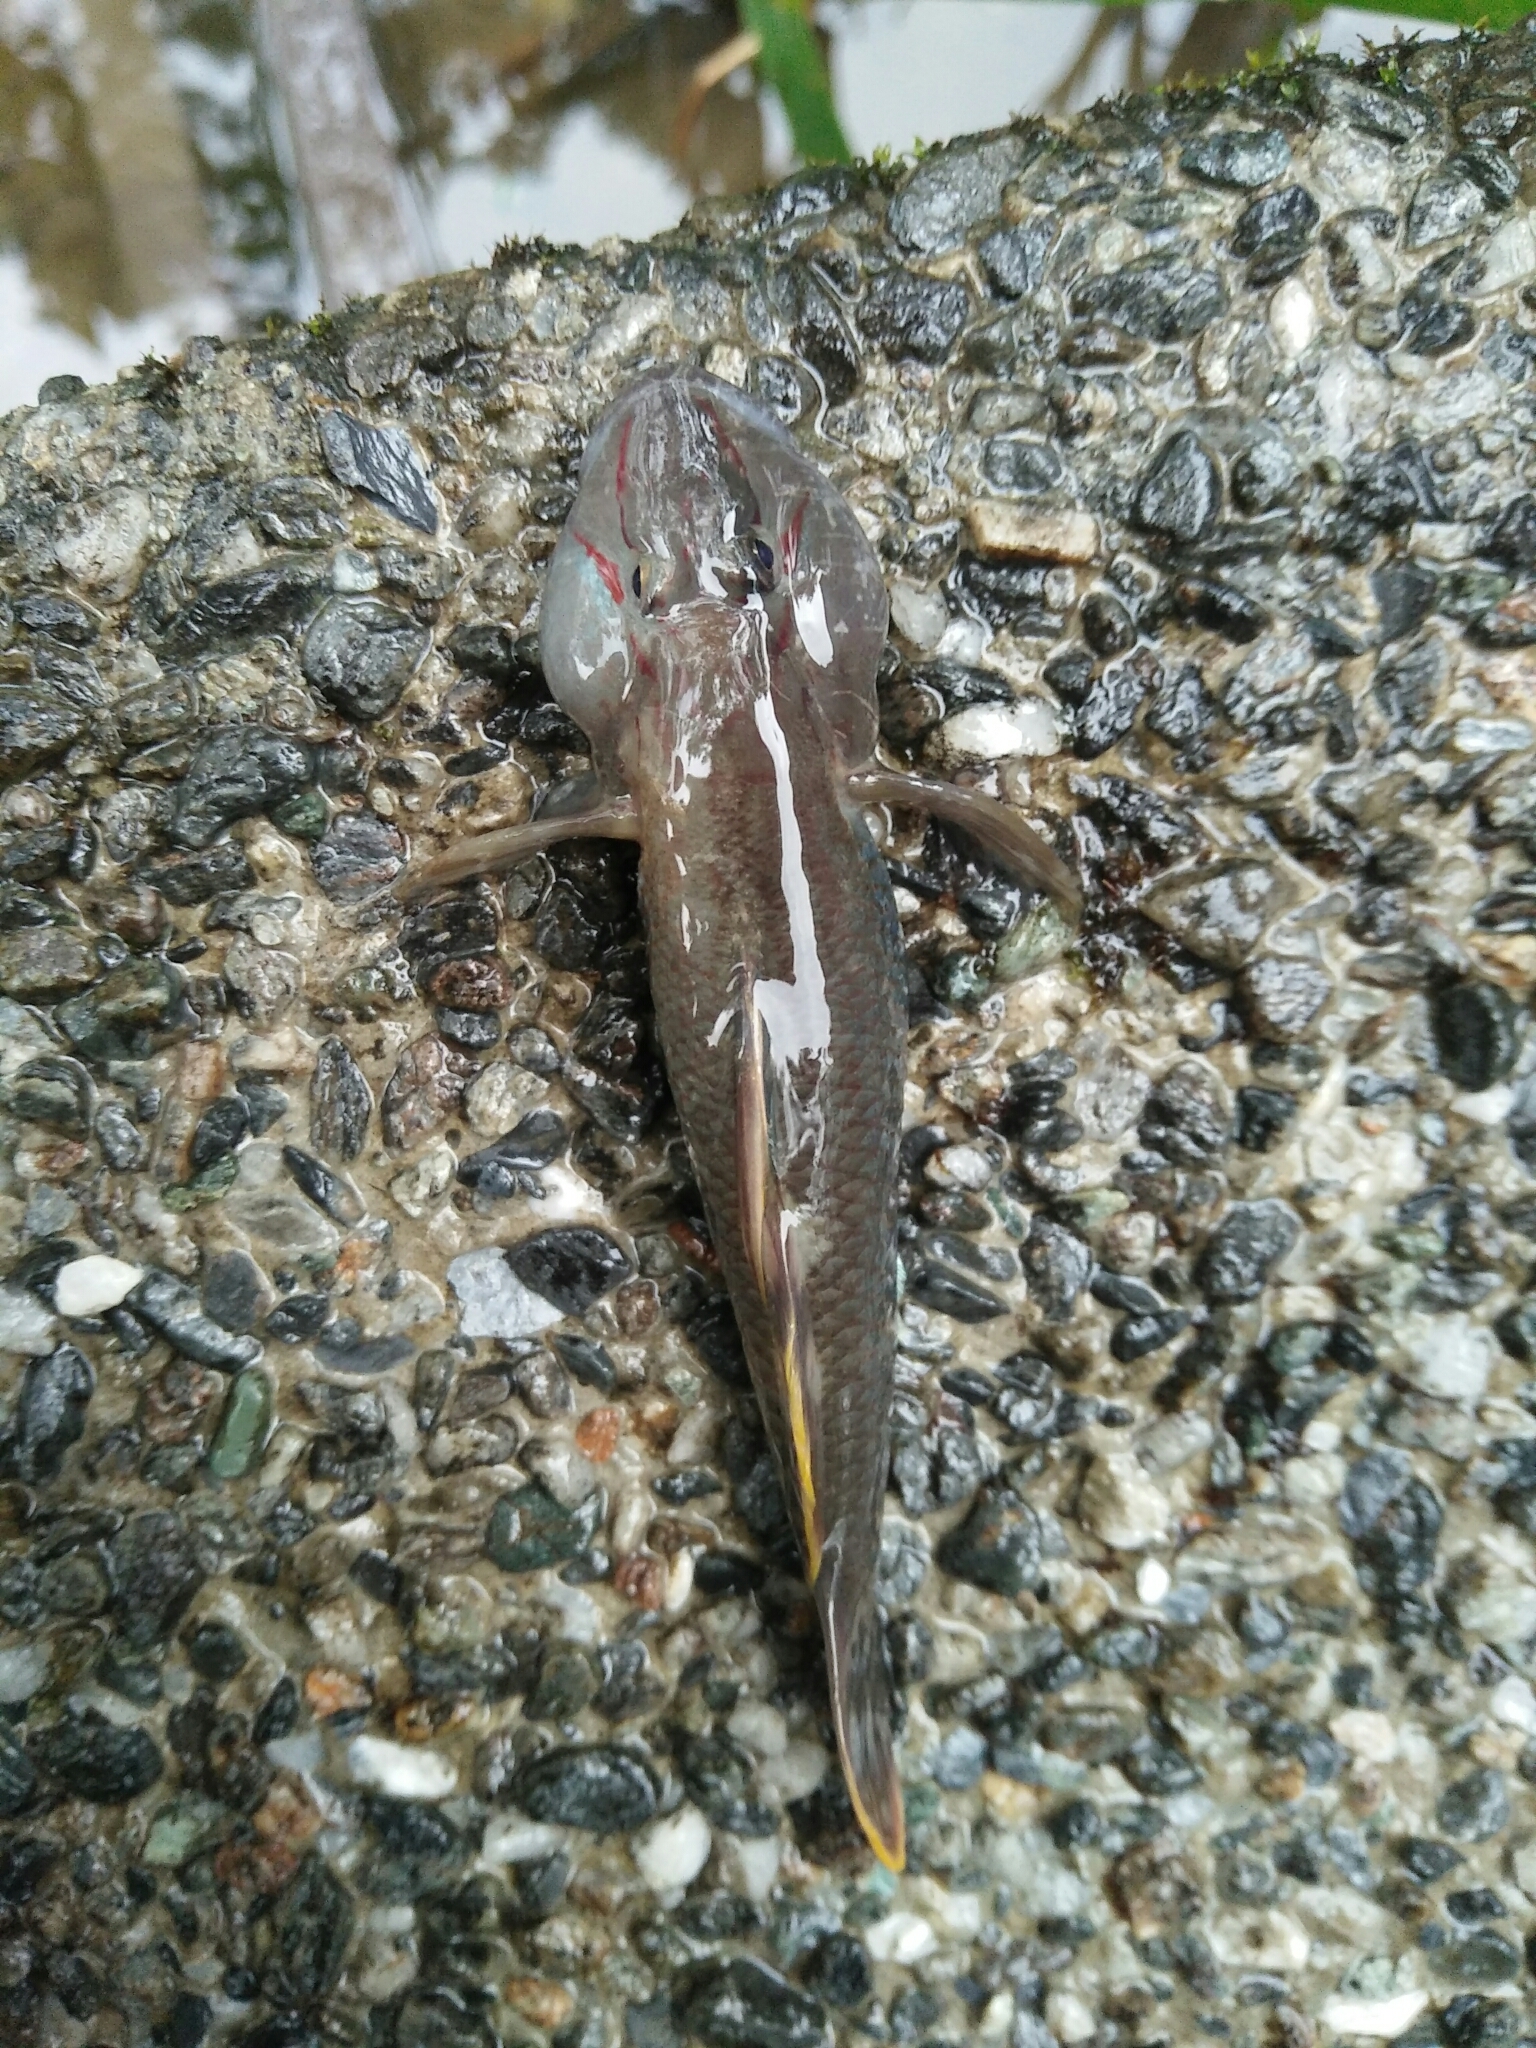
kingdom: Animalia
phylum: Chordata
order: Perciformes
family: Gobiidae
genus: Rhinogobius
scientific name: Rhinogobius candidianus
